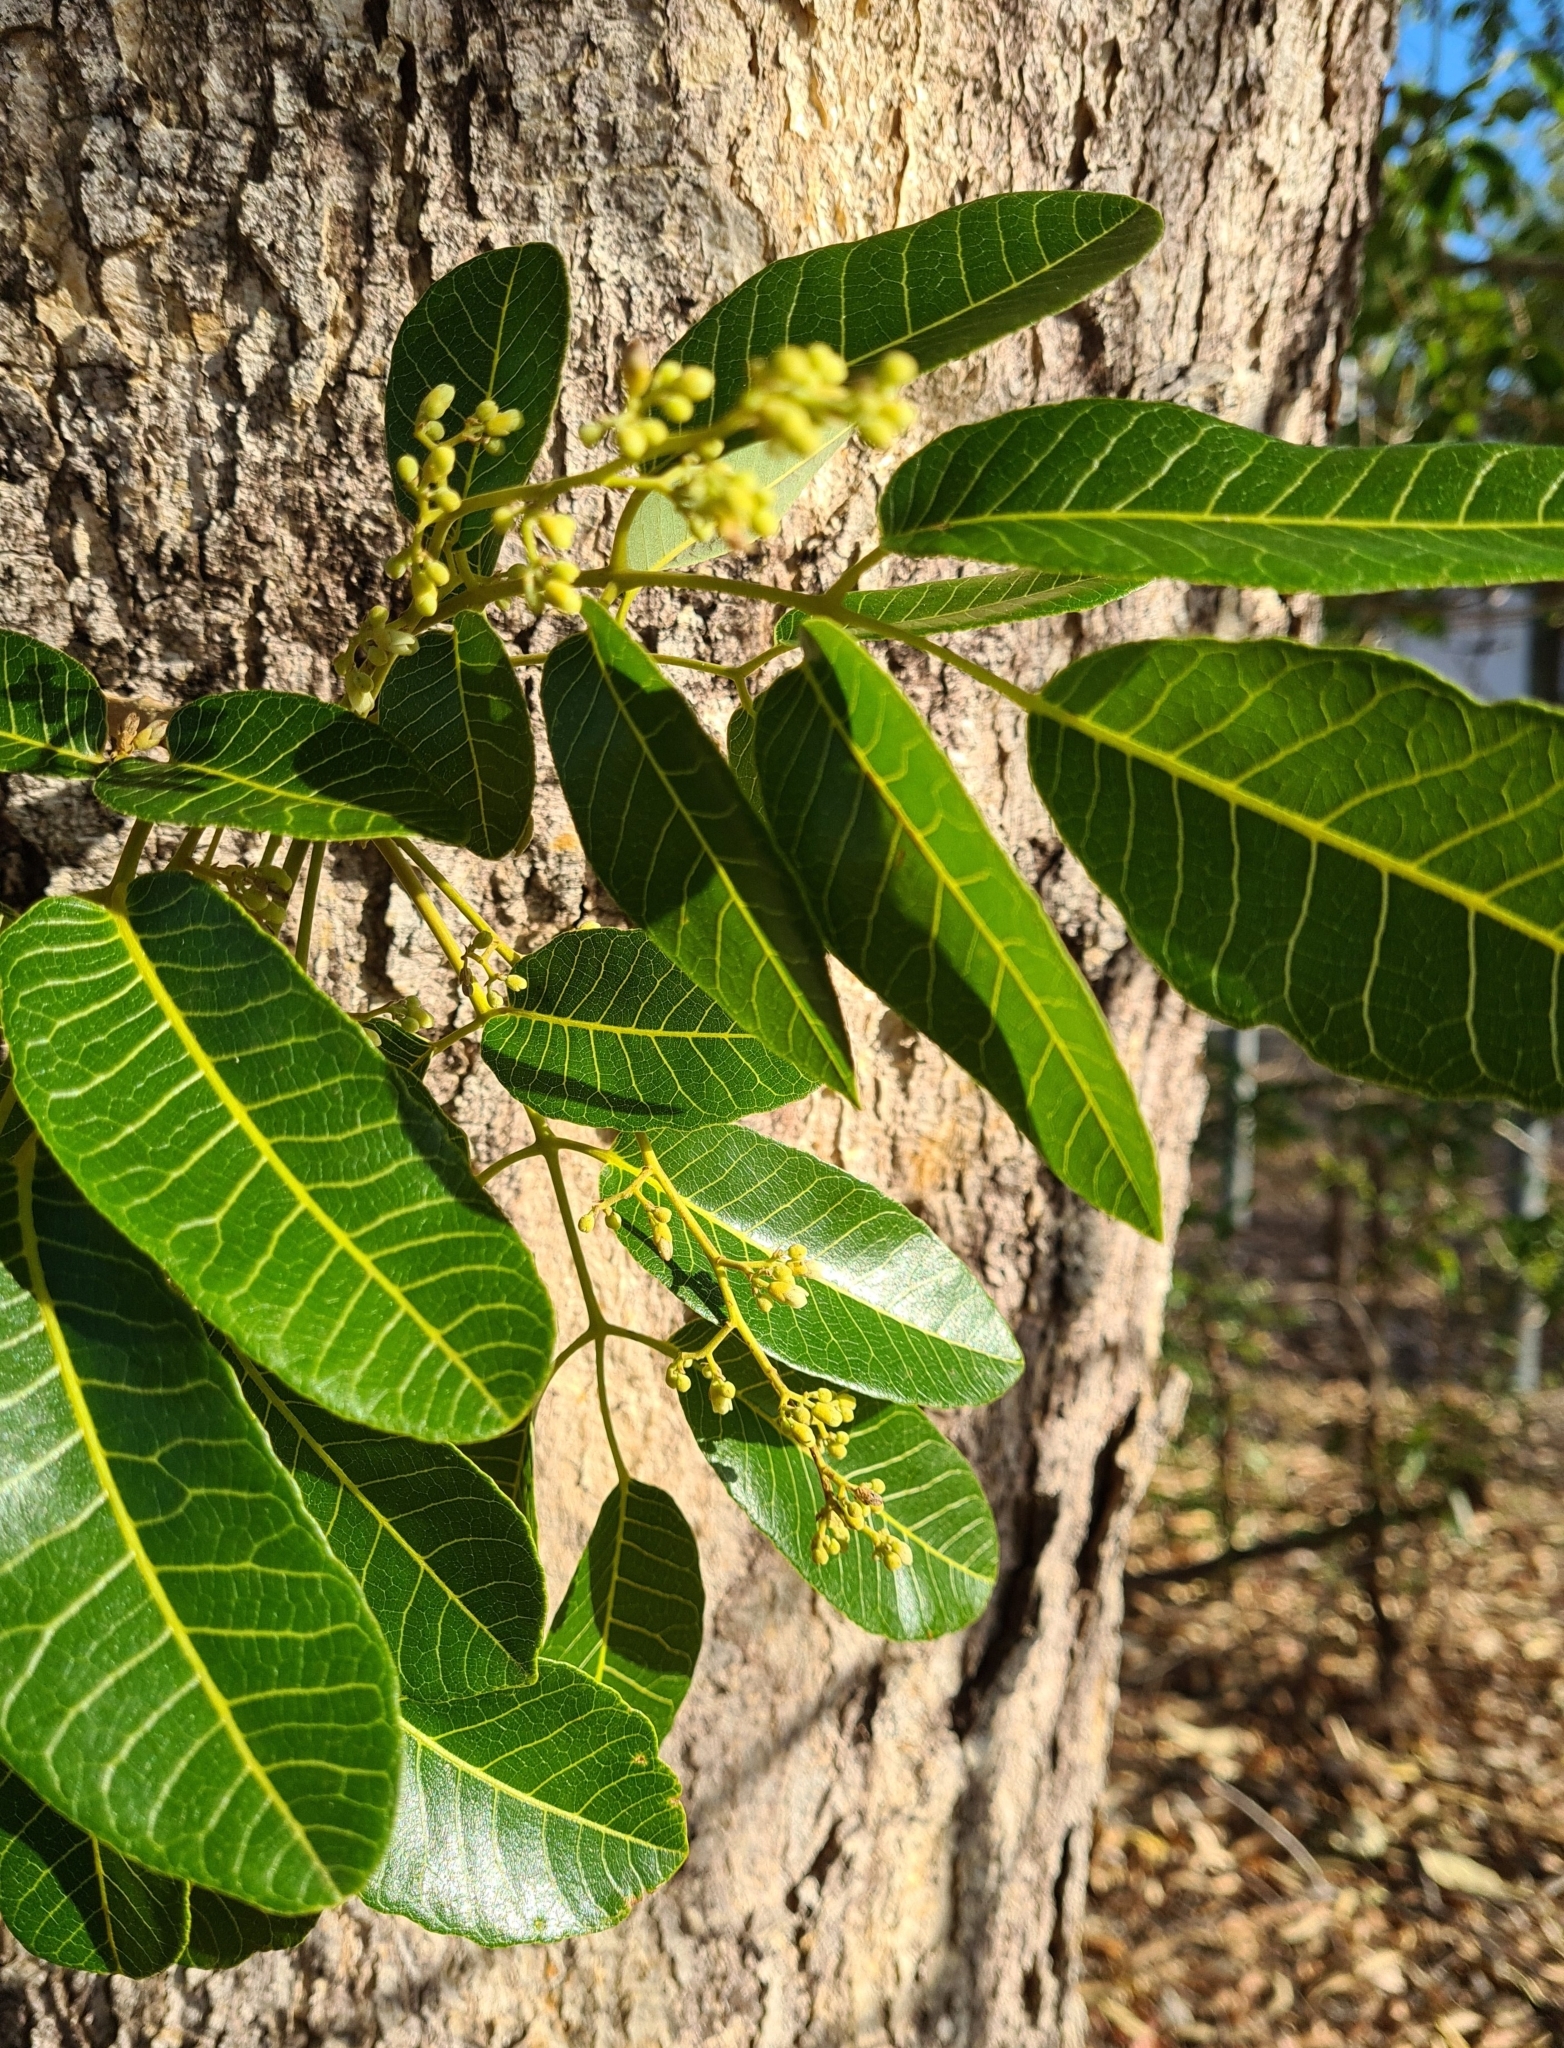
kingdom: Plantae
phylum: Tracheophyta
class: Magnoliopsida
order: Sapindales
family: Burseraceae
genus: Canarium
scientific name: Canarium australianum
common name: Island white-beech
